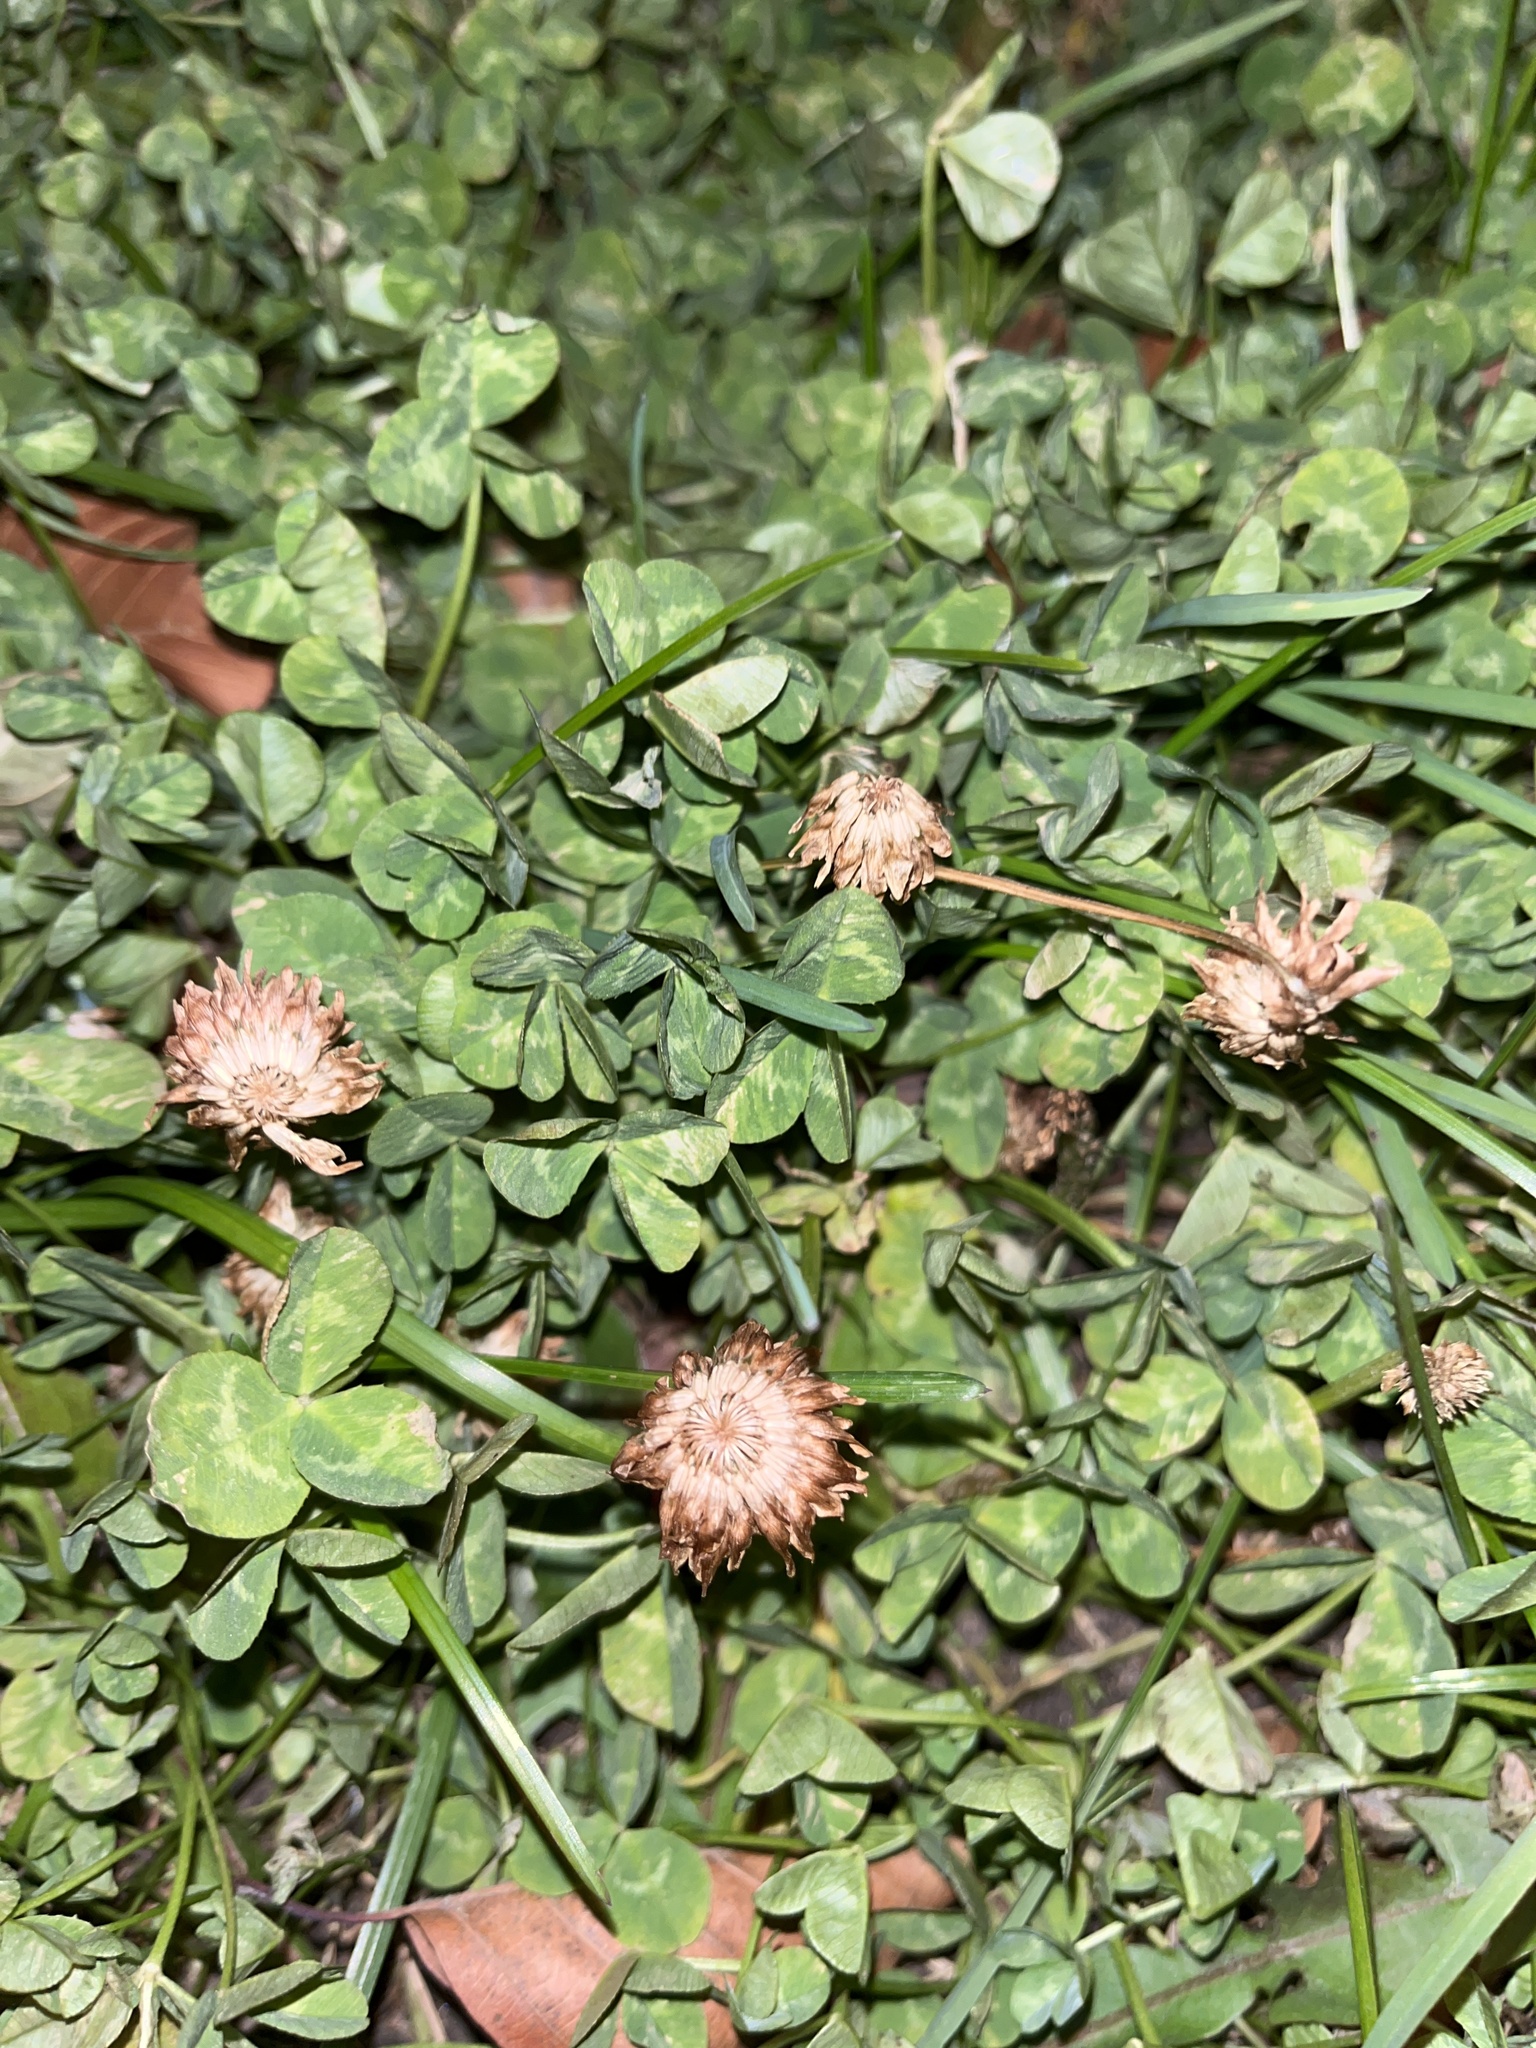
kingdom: Plantae
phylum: Tracheophyta
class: Magnoliopsida
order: Fabales
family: Fabaceae
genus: Trifolium
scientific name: Trifolium repens
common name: White clover
